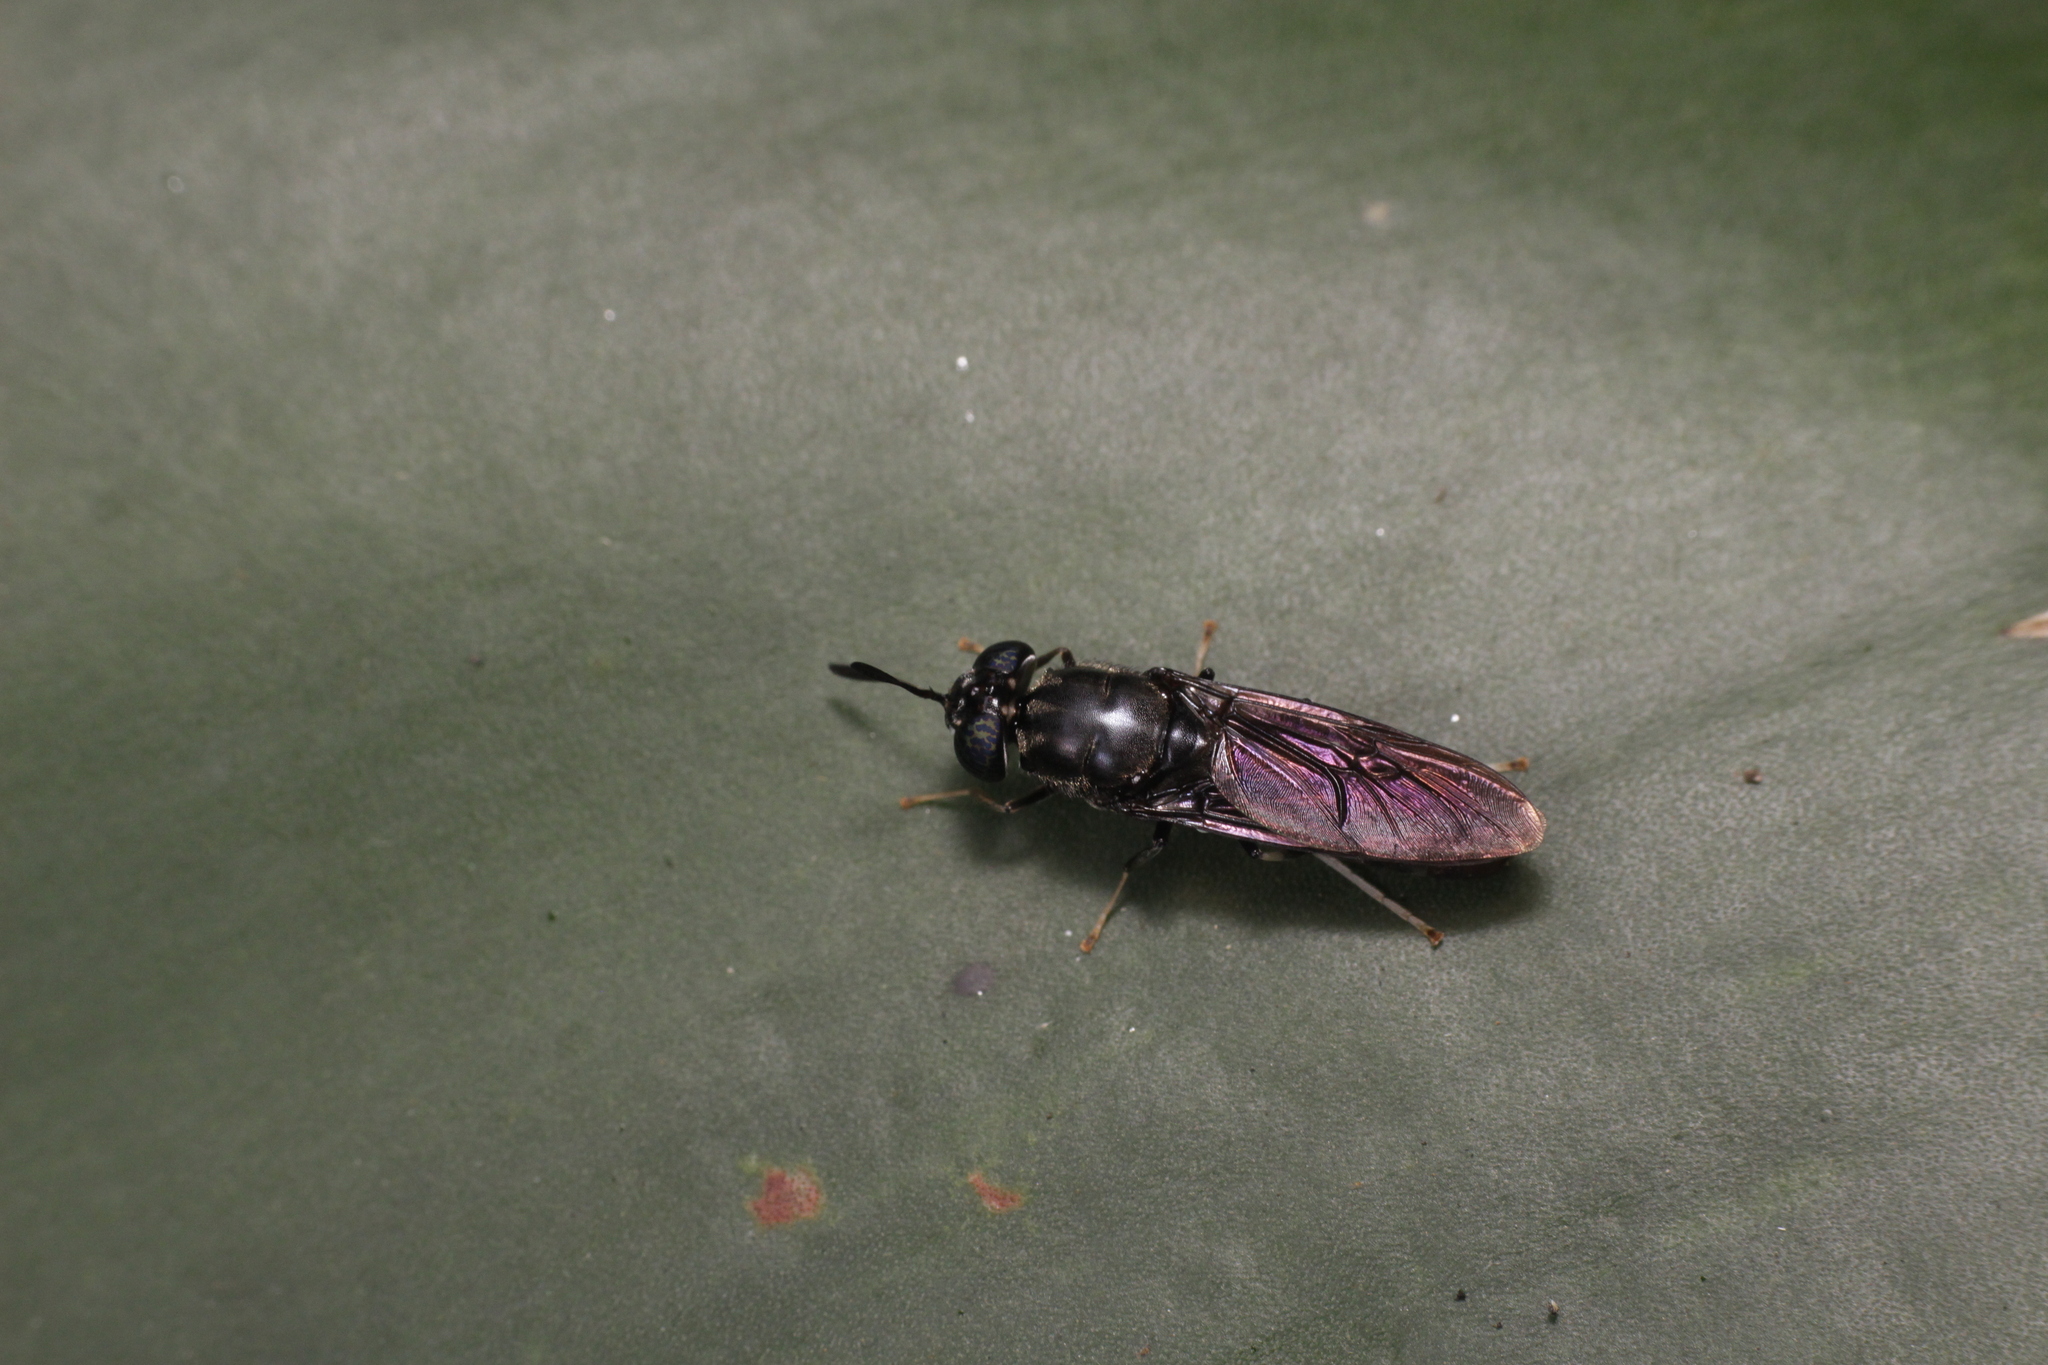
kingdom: Animalia
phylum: Arthropoda
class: Insecta
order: Diptera
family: Stratiomyidae
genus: Hermetia
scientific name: Hermetia illucens
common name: Black soldier fly
